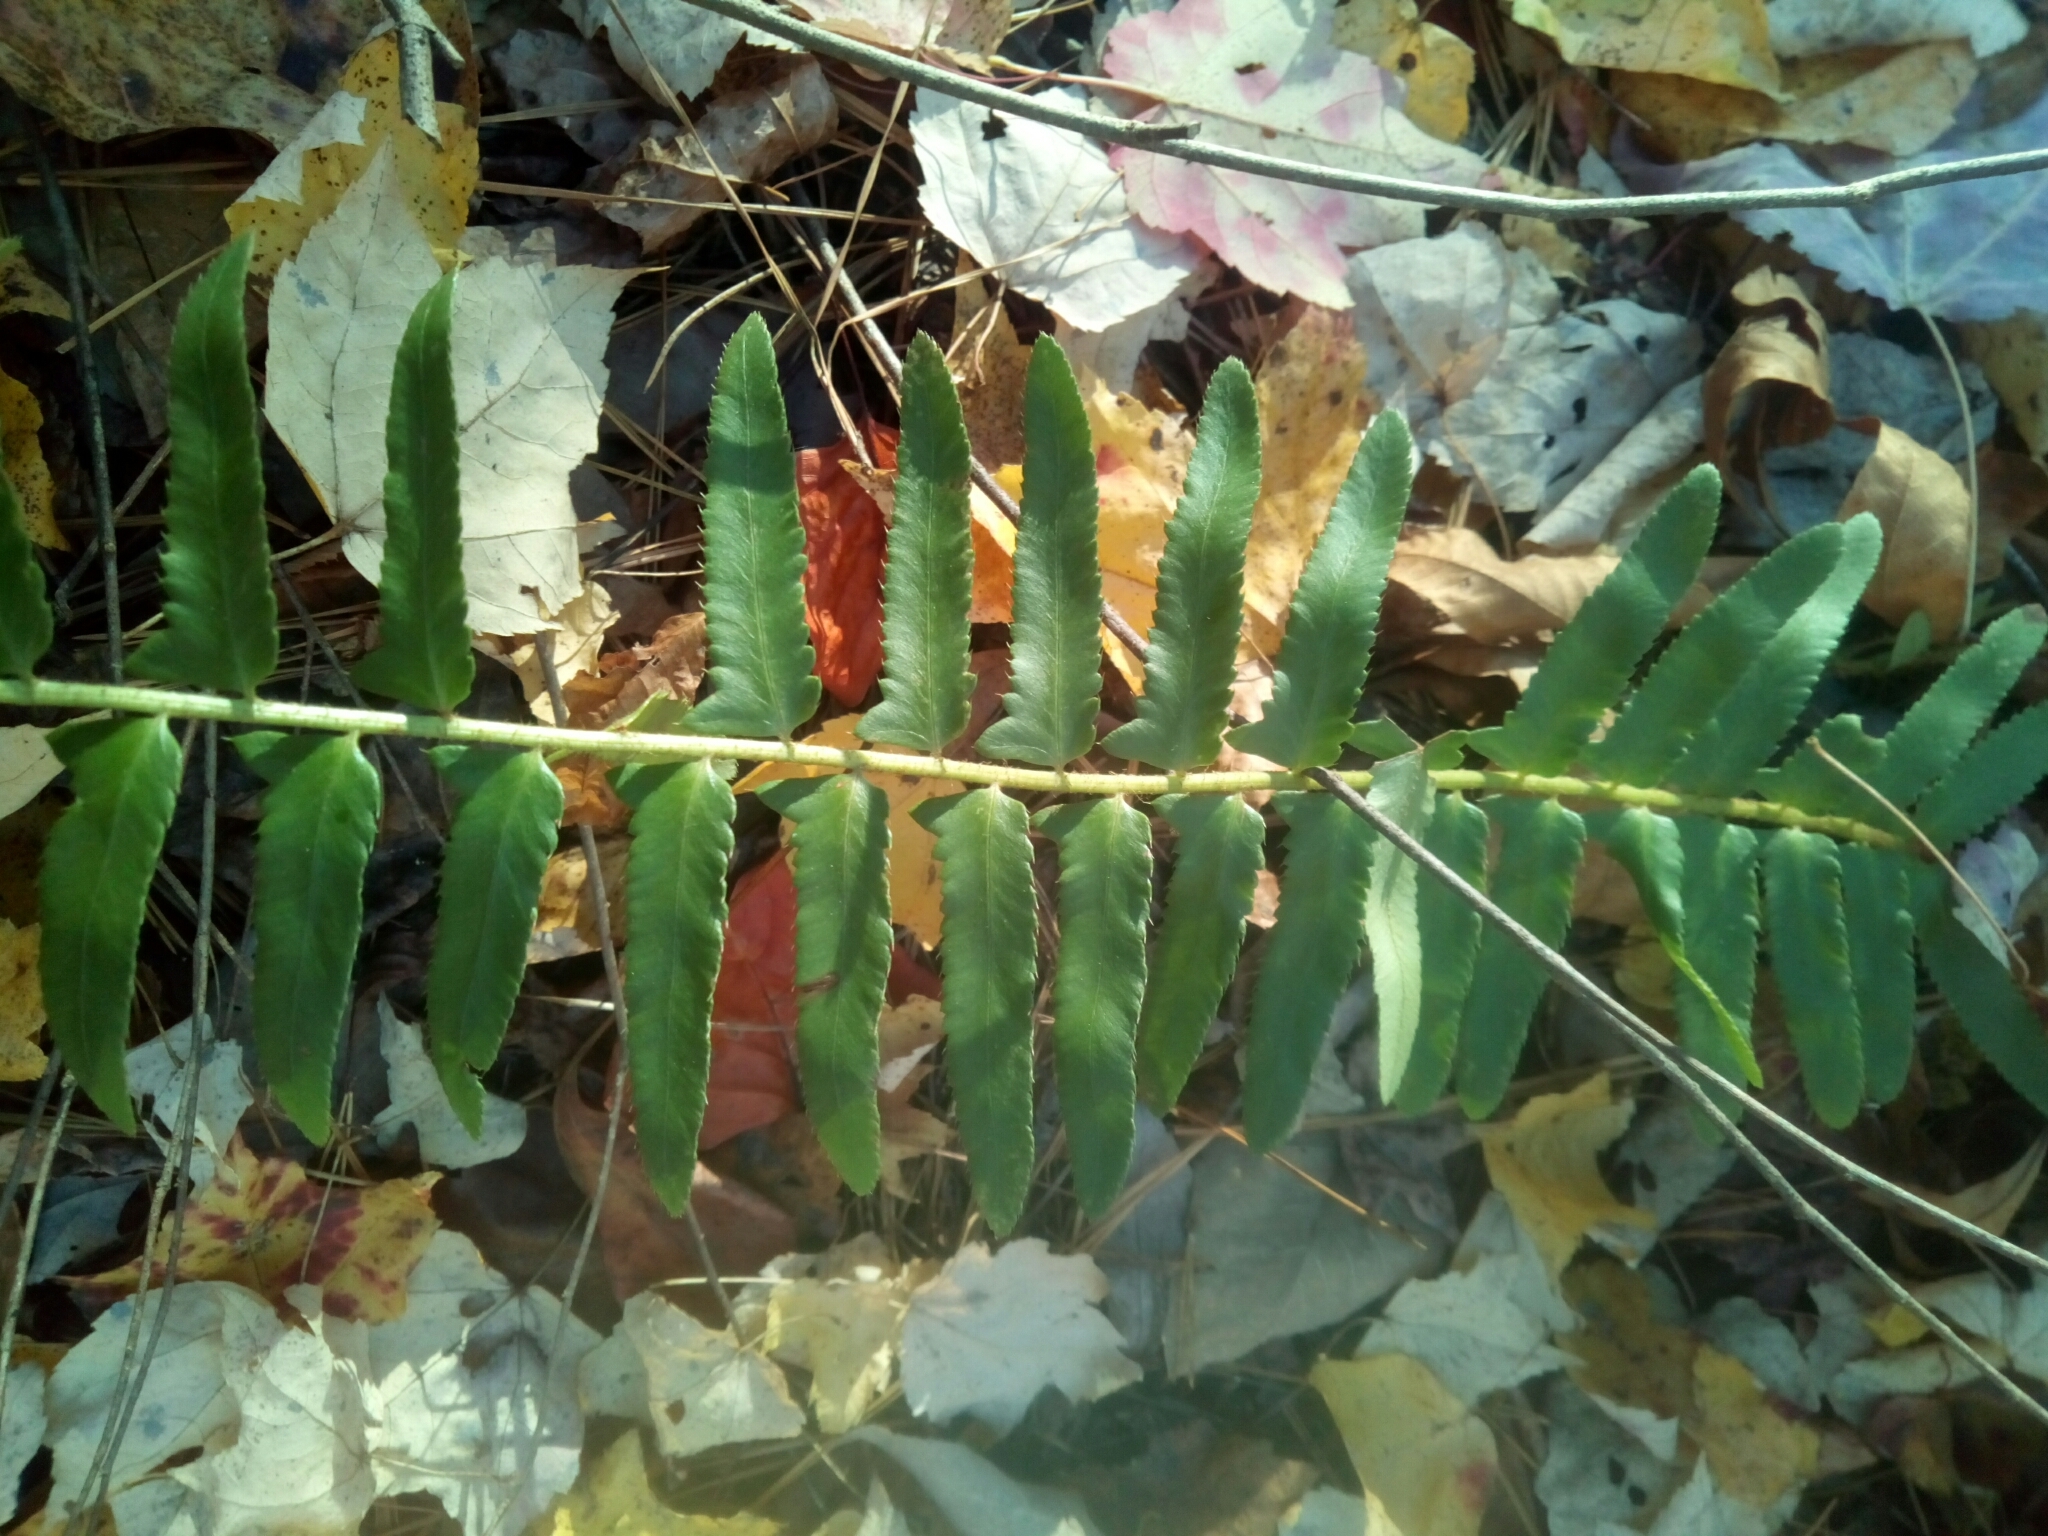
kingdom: Plantae
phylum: Tracheophyta
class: Polypodiopsida
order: Polypodiales
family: Dryopteridaceae
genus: Polystichum
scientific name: Polystichum acrostichoides
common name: Christmas fern
